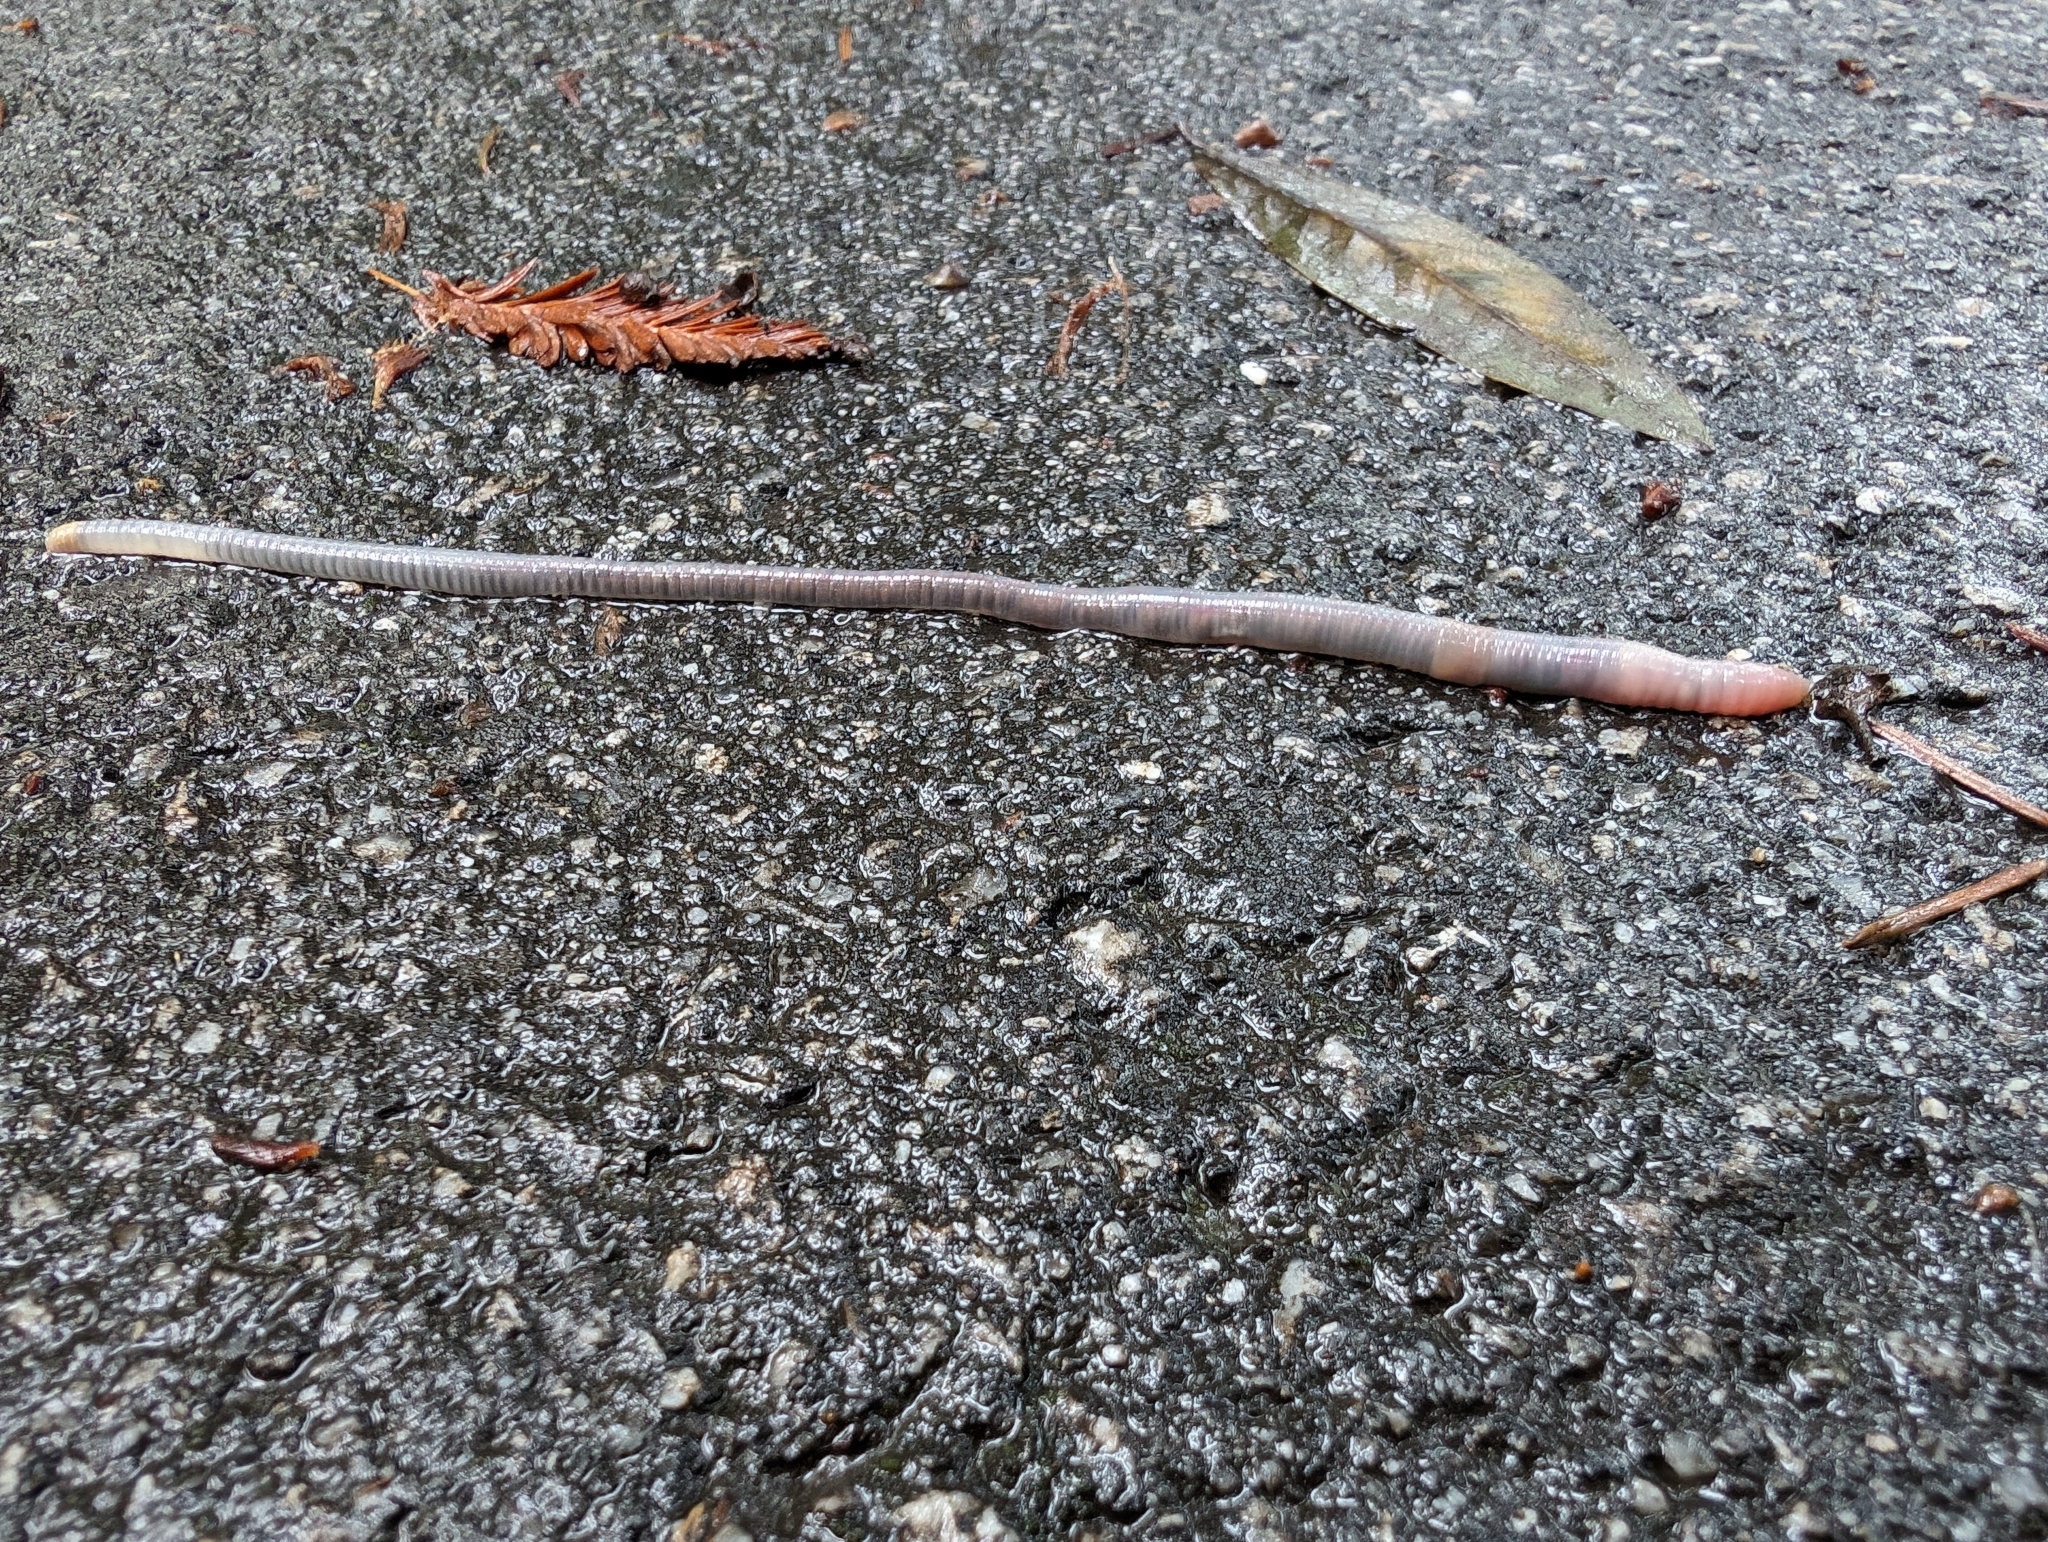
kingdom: Animalia
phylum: Annelida
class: Clitellata
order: Crassiclitellata
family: Lumbricidae
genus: Octolasion
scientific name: Octolasion cyaneum
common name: Woodland blue worm
